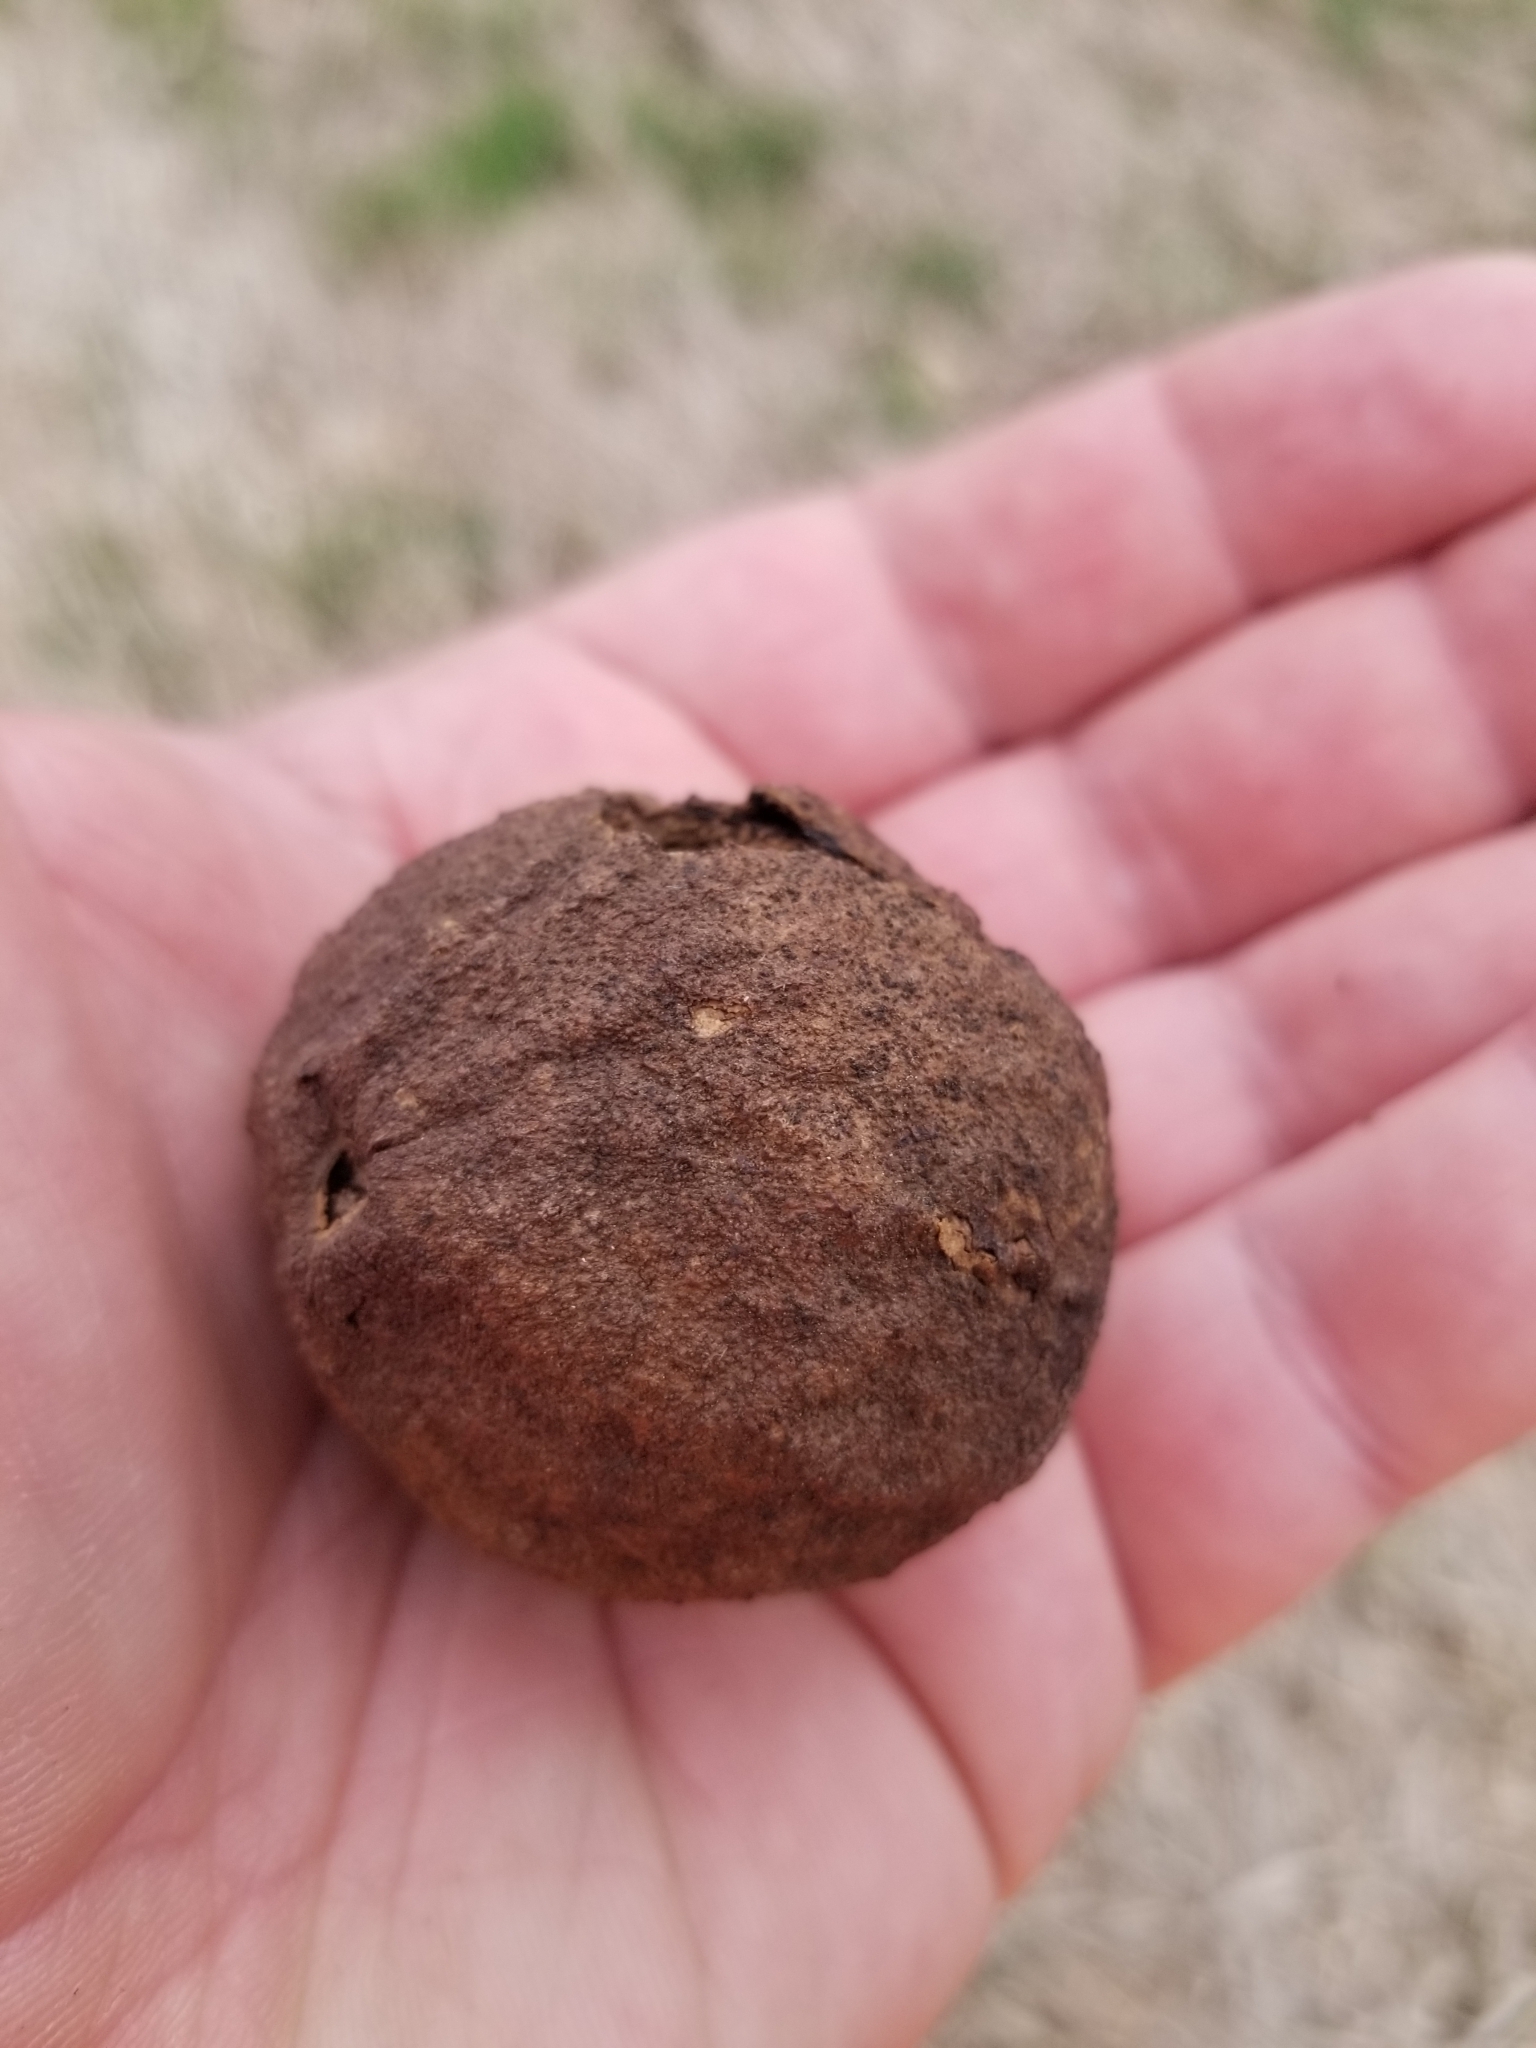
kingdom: Plantae
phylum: Tracheophyta
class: Magnoliopsida
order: Fagales
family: Juglandaceae
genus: Juglans
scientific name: Juglans nigra
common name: Black walnut
